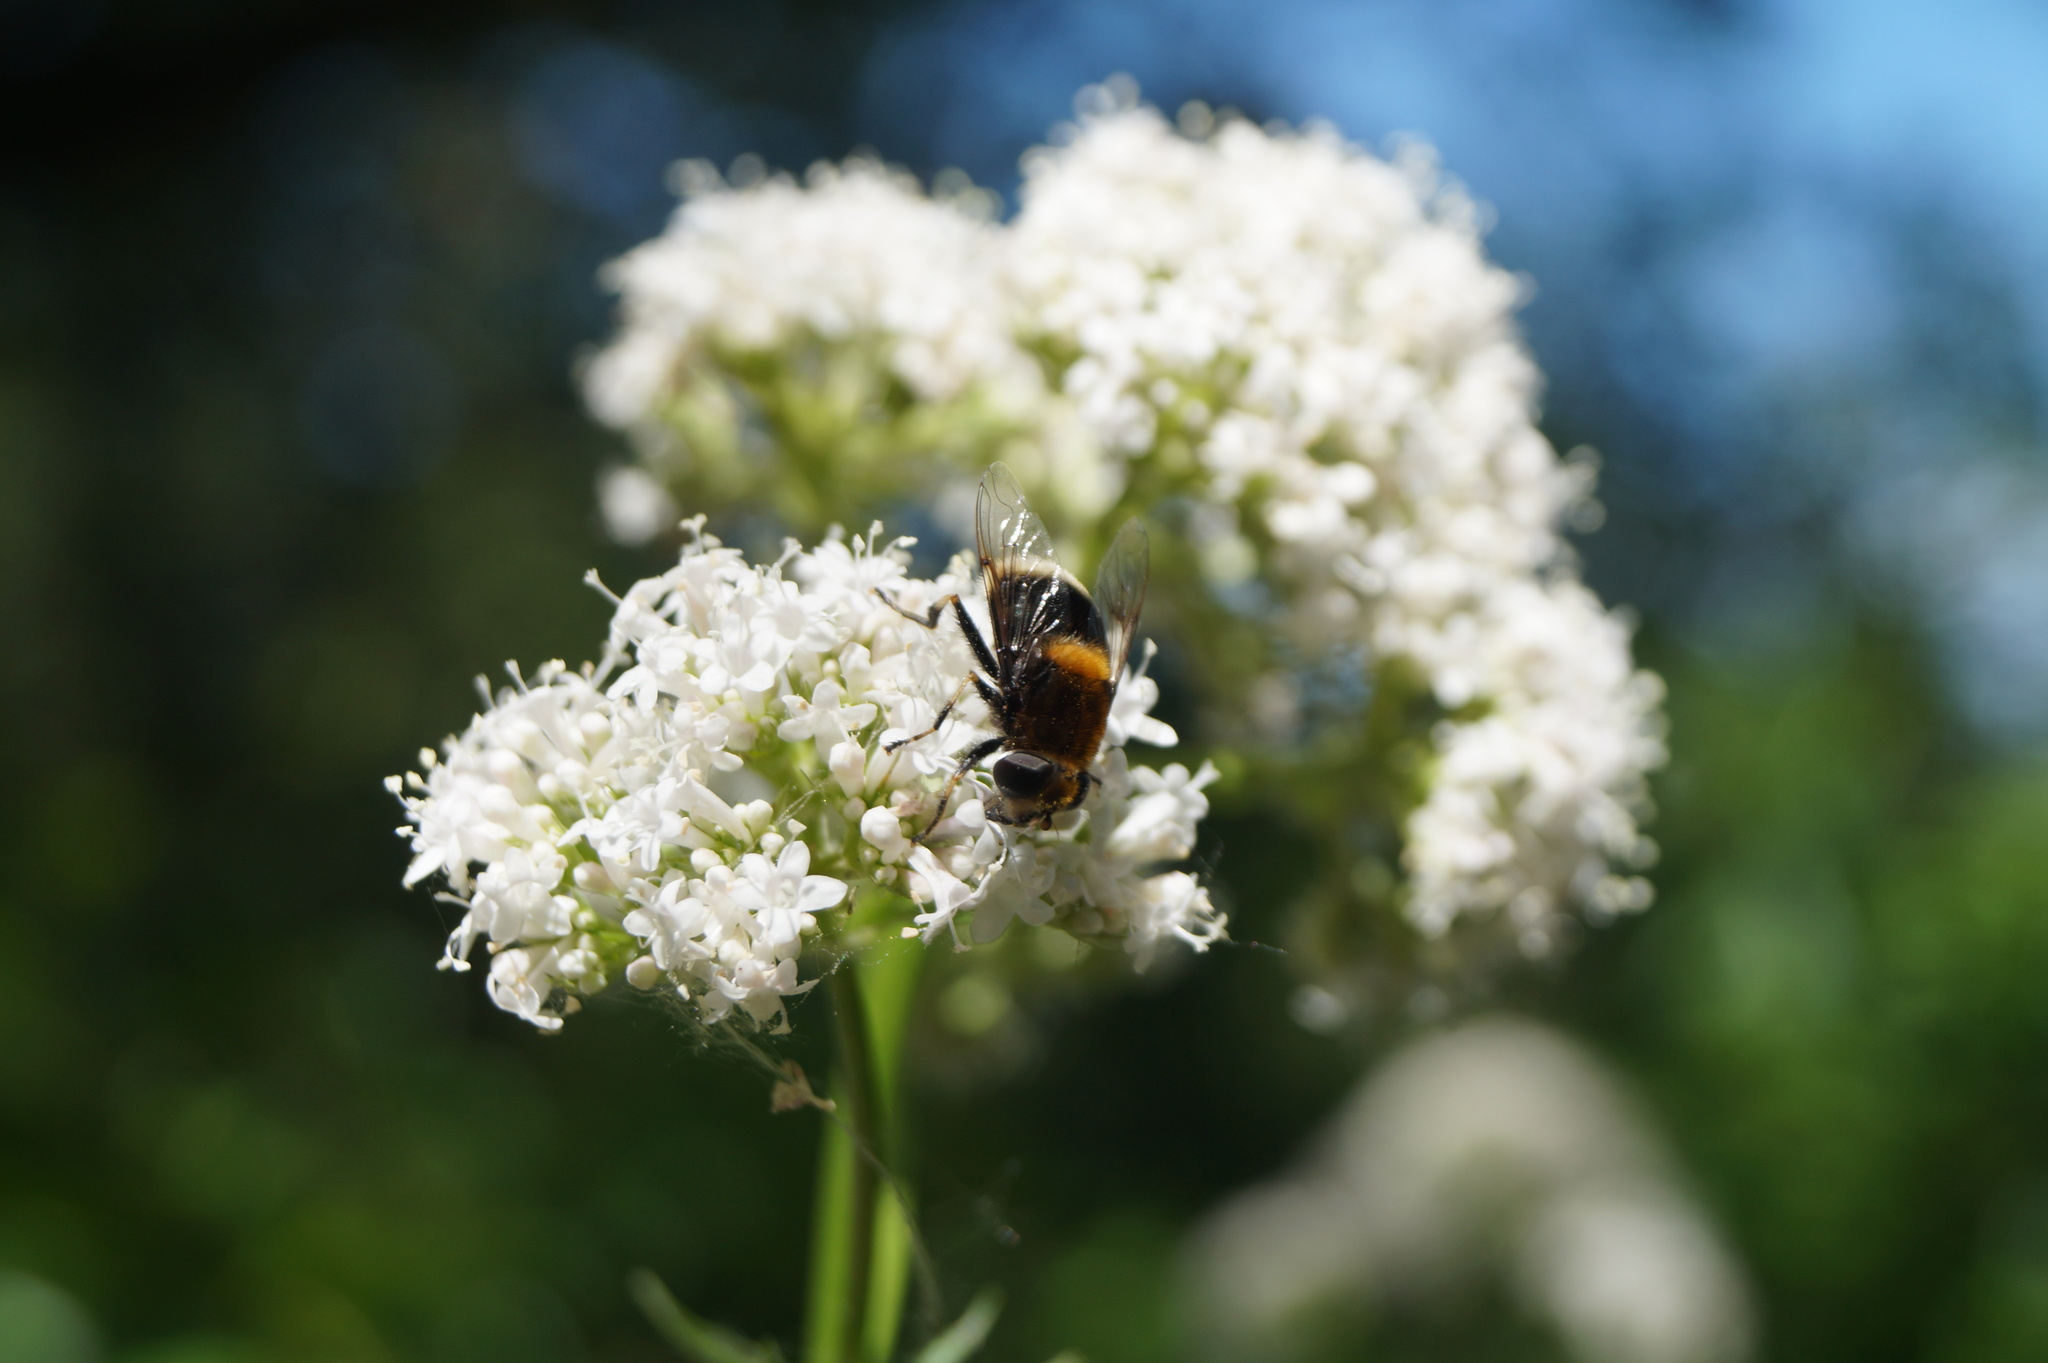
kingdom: Animalia
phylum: Arthropoda
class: Insecta
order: Diptera
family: Syrphidae
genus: Eristalis
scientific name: Eristalis intricaria
